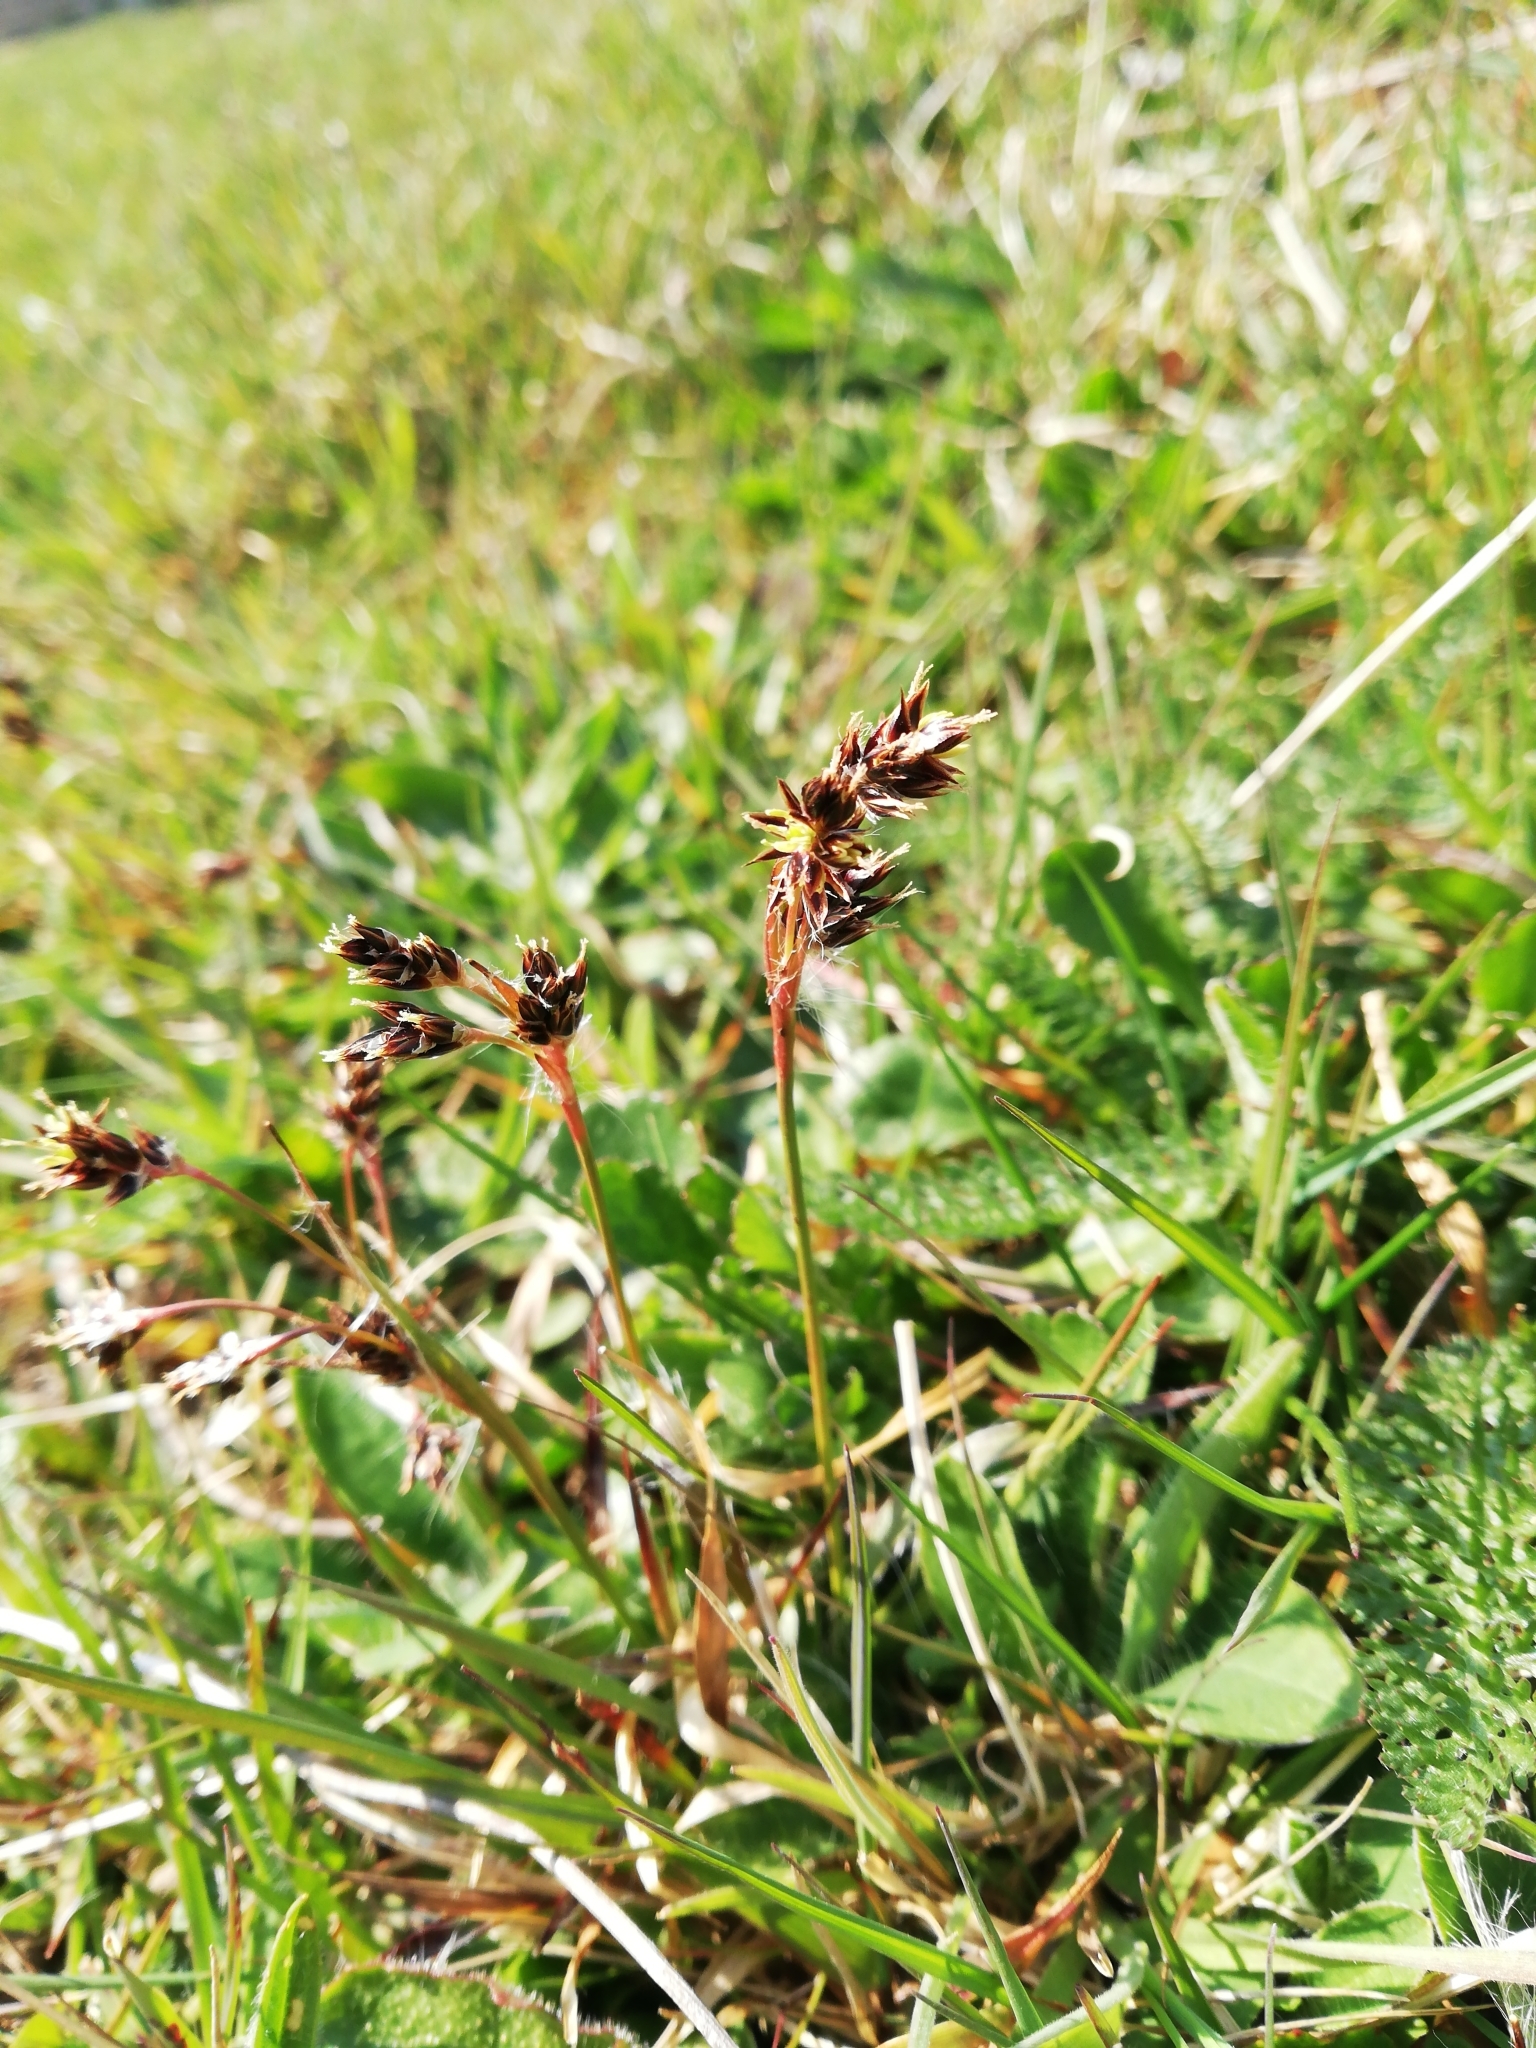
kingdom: Plantae
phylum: Tracheophyta
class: Liliopsida
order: Poales
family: Juncaceae
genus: Luzula
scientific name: Luzula campestris
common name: Field wood-rush
